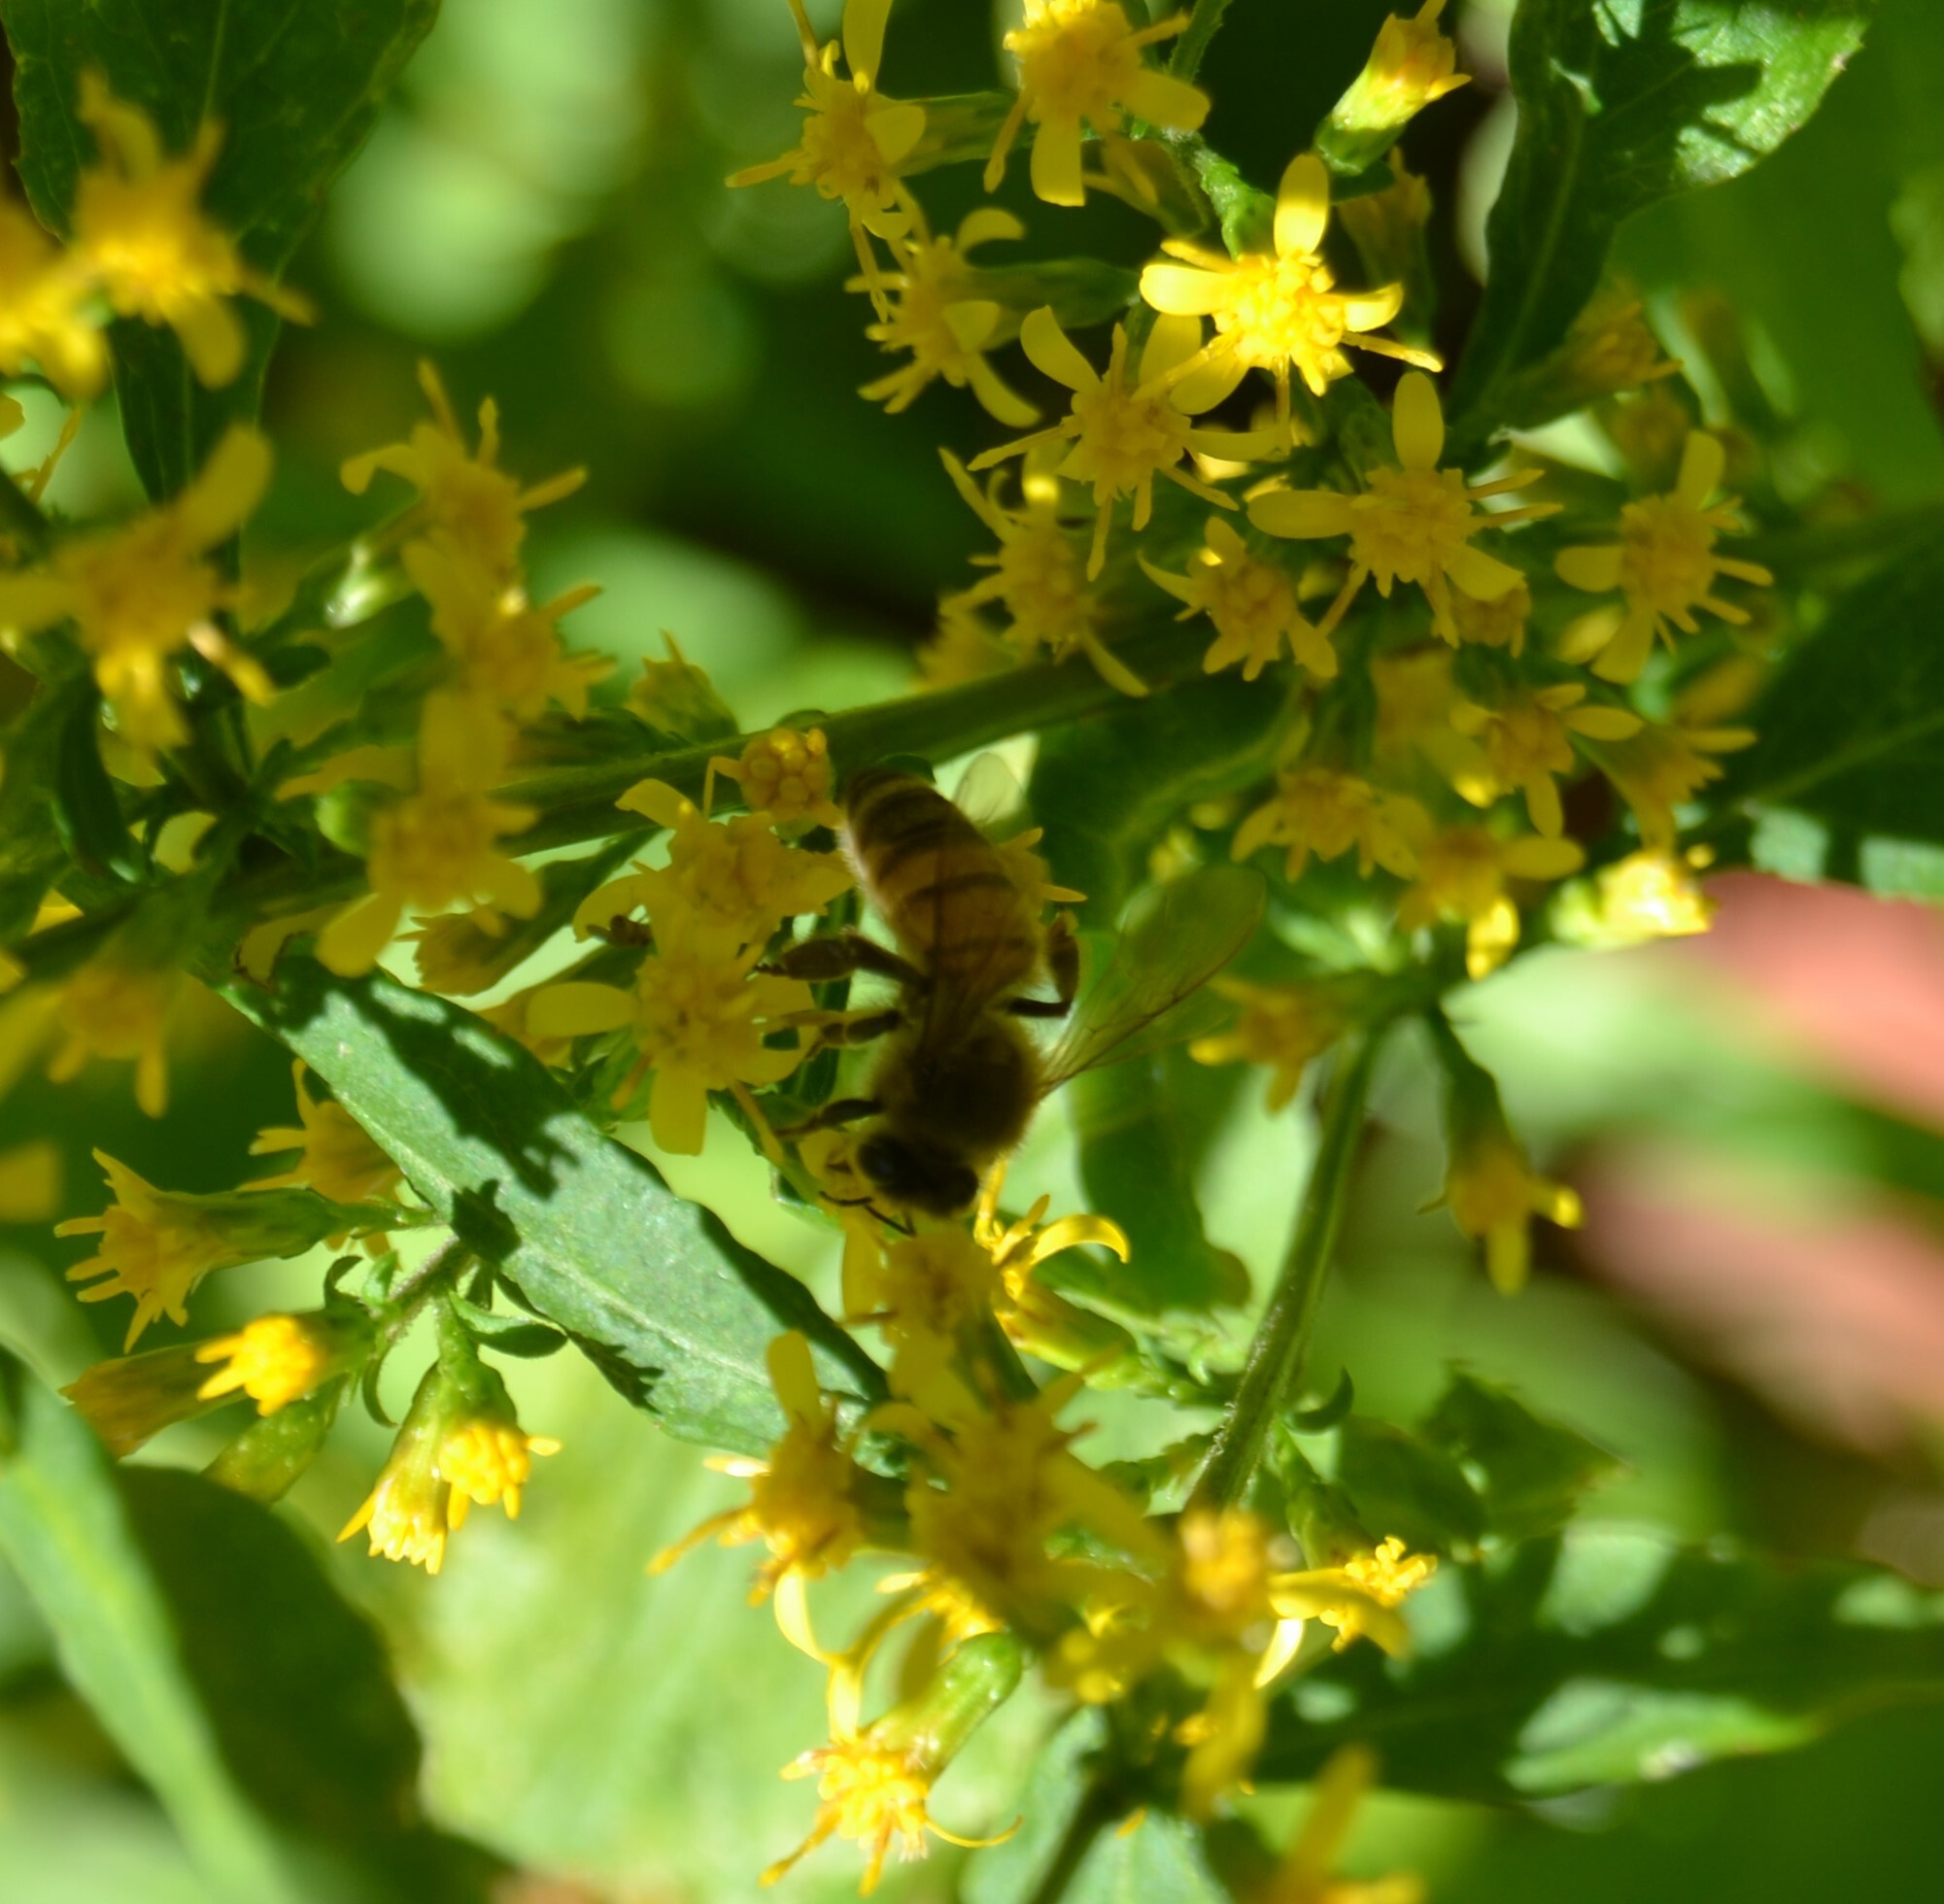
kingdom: Animalia
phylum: Arthropoda
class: Insecta
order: Hymenoptera
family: Apidae
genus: Apis
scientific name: Apis mellifera
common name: Honey bee
